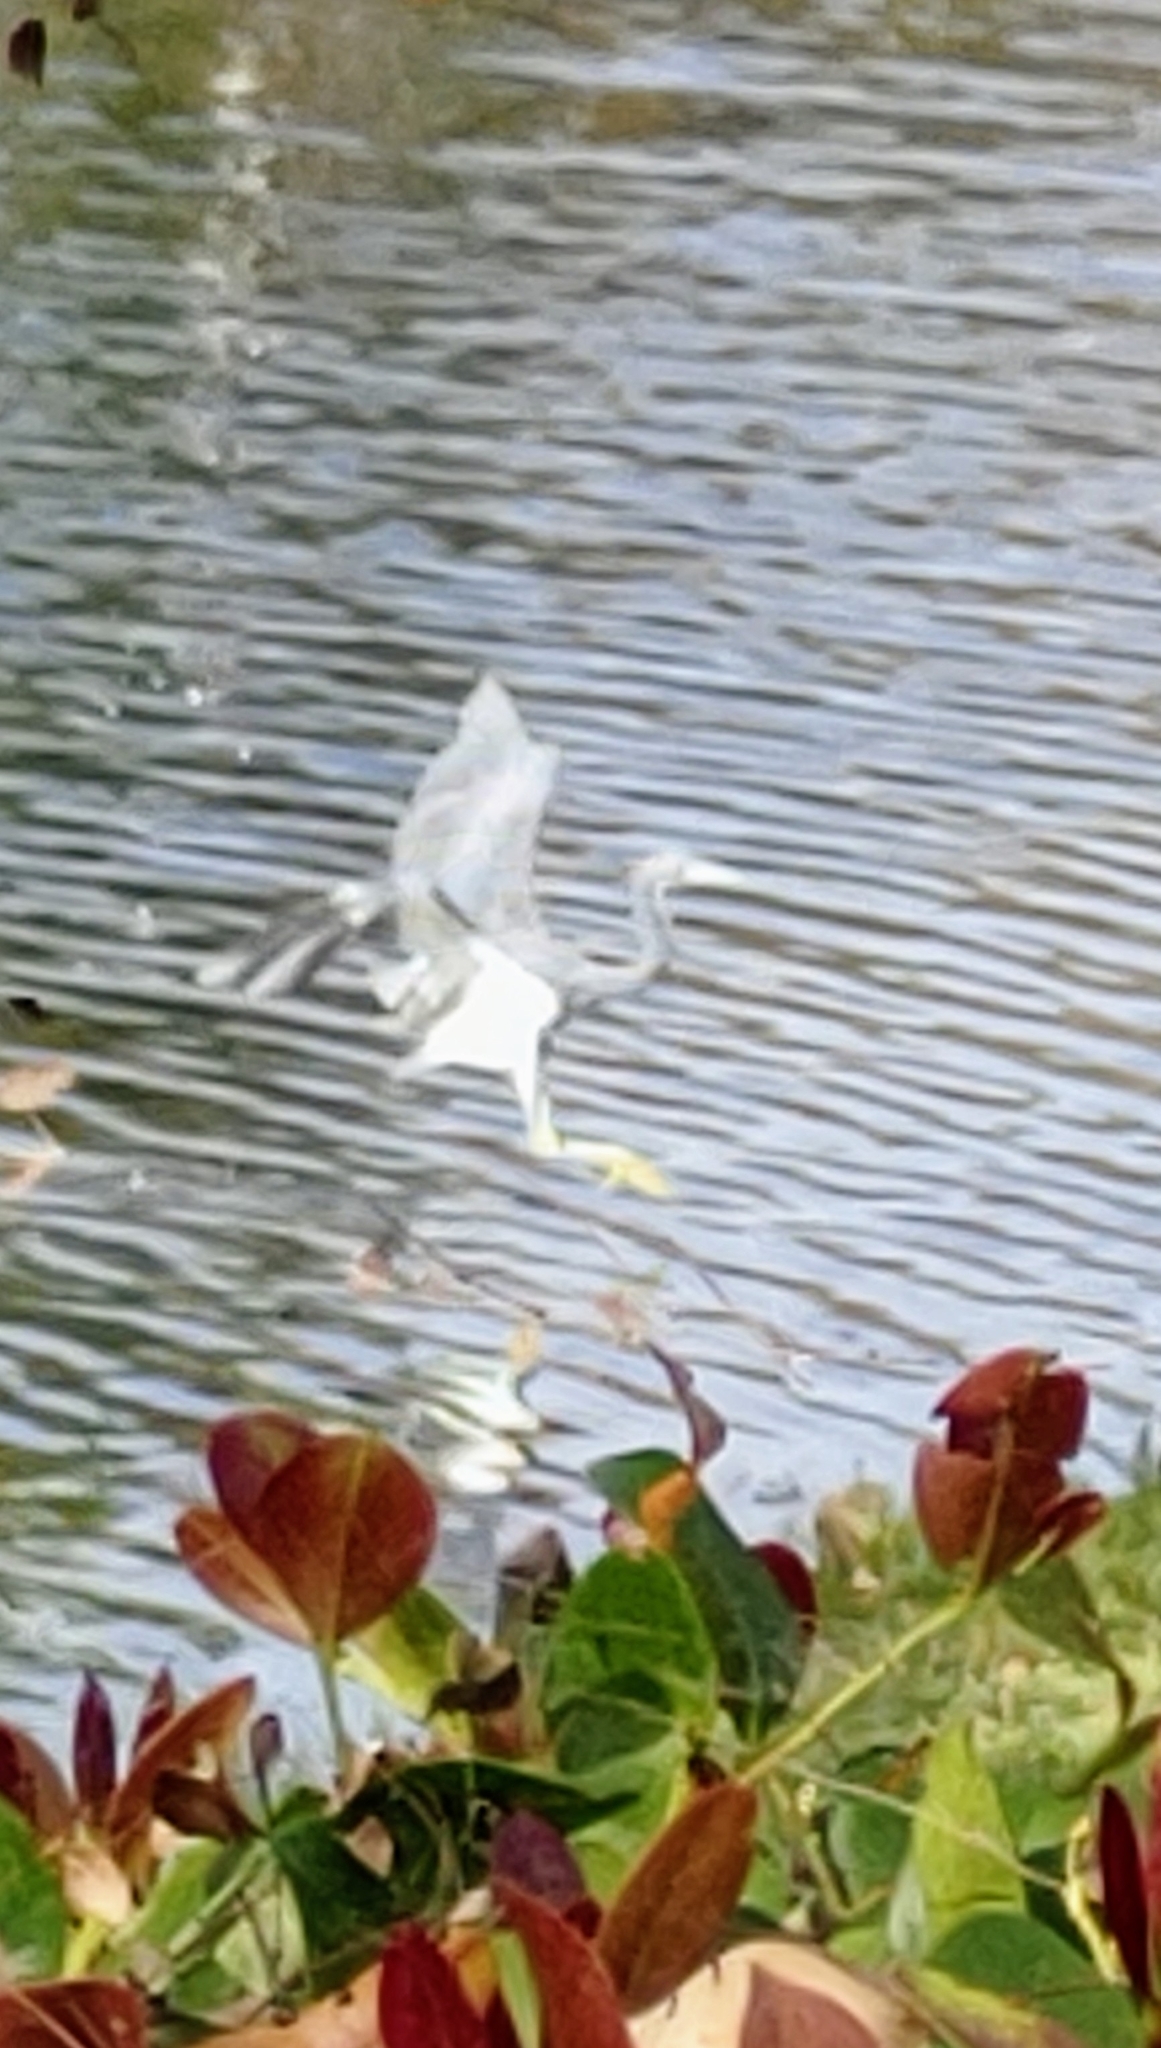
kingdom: Animalia
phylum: Chordata
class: Aves
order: Pelecaniformes
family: Ardeidae
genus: Egretta
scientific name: Egretta tricolor
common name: Tricolored heron
